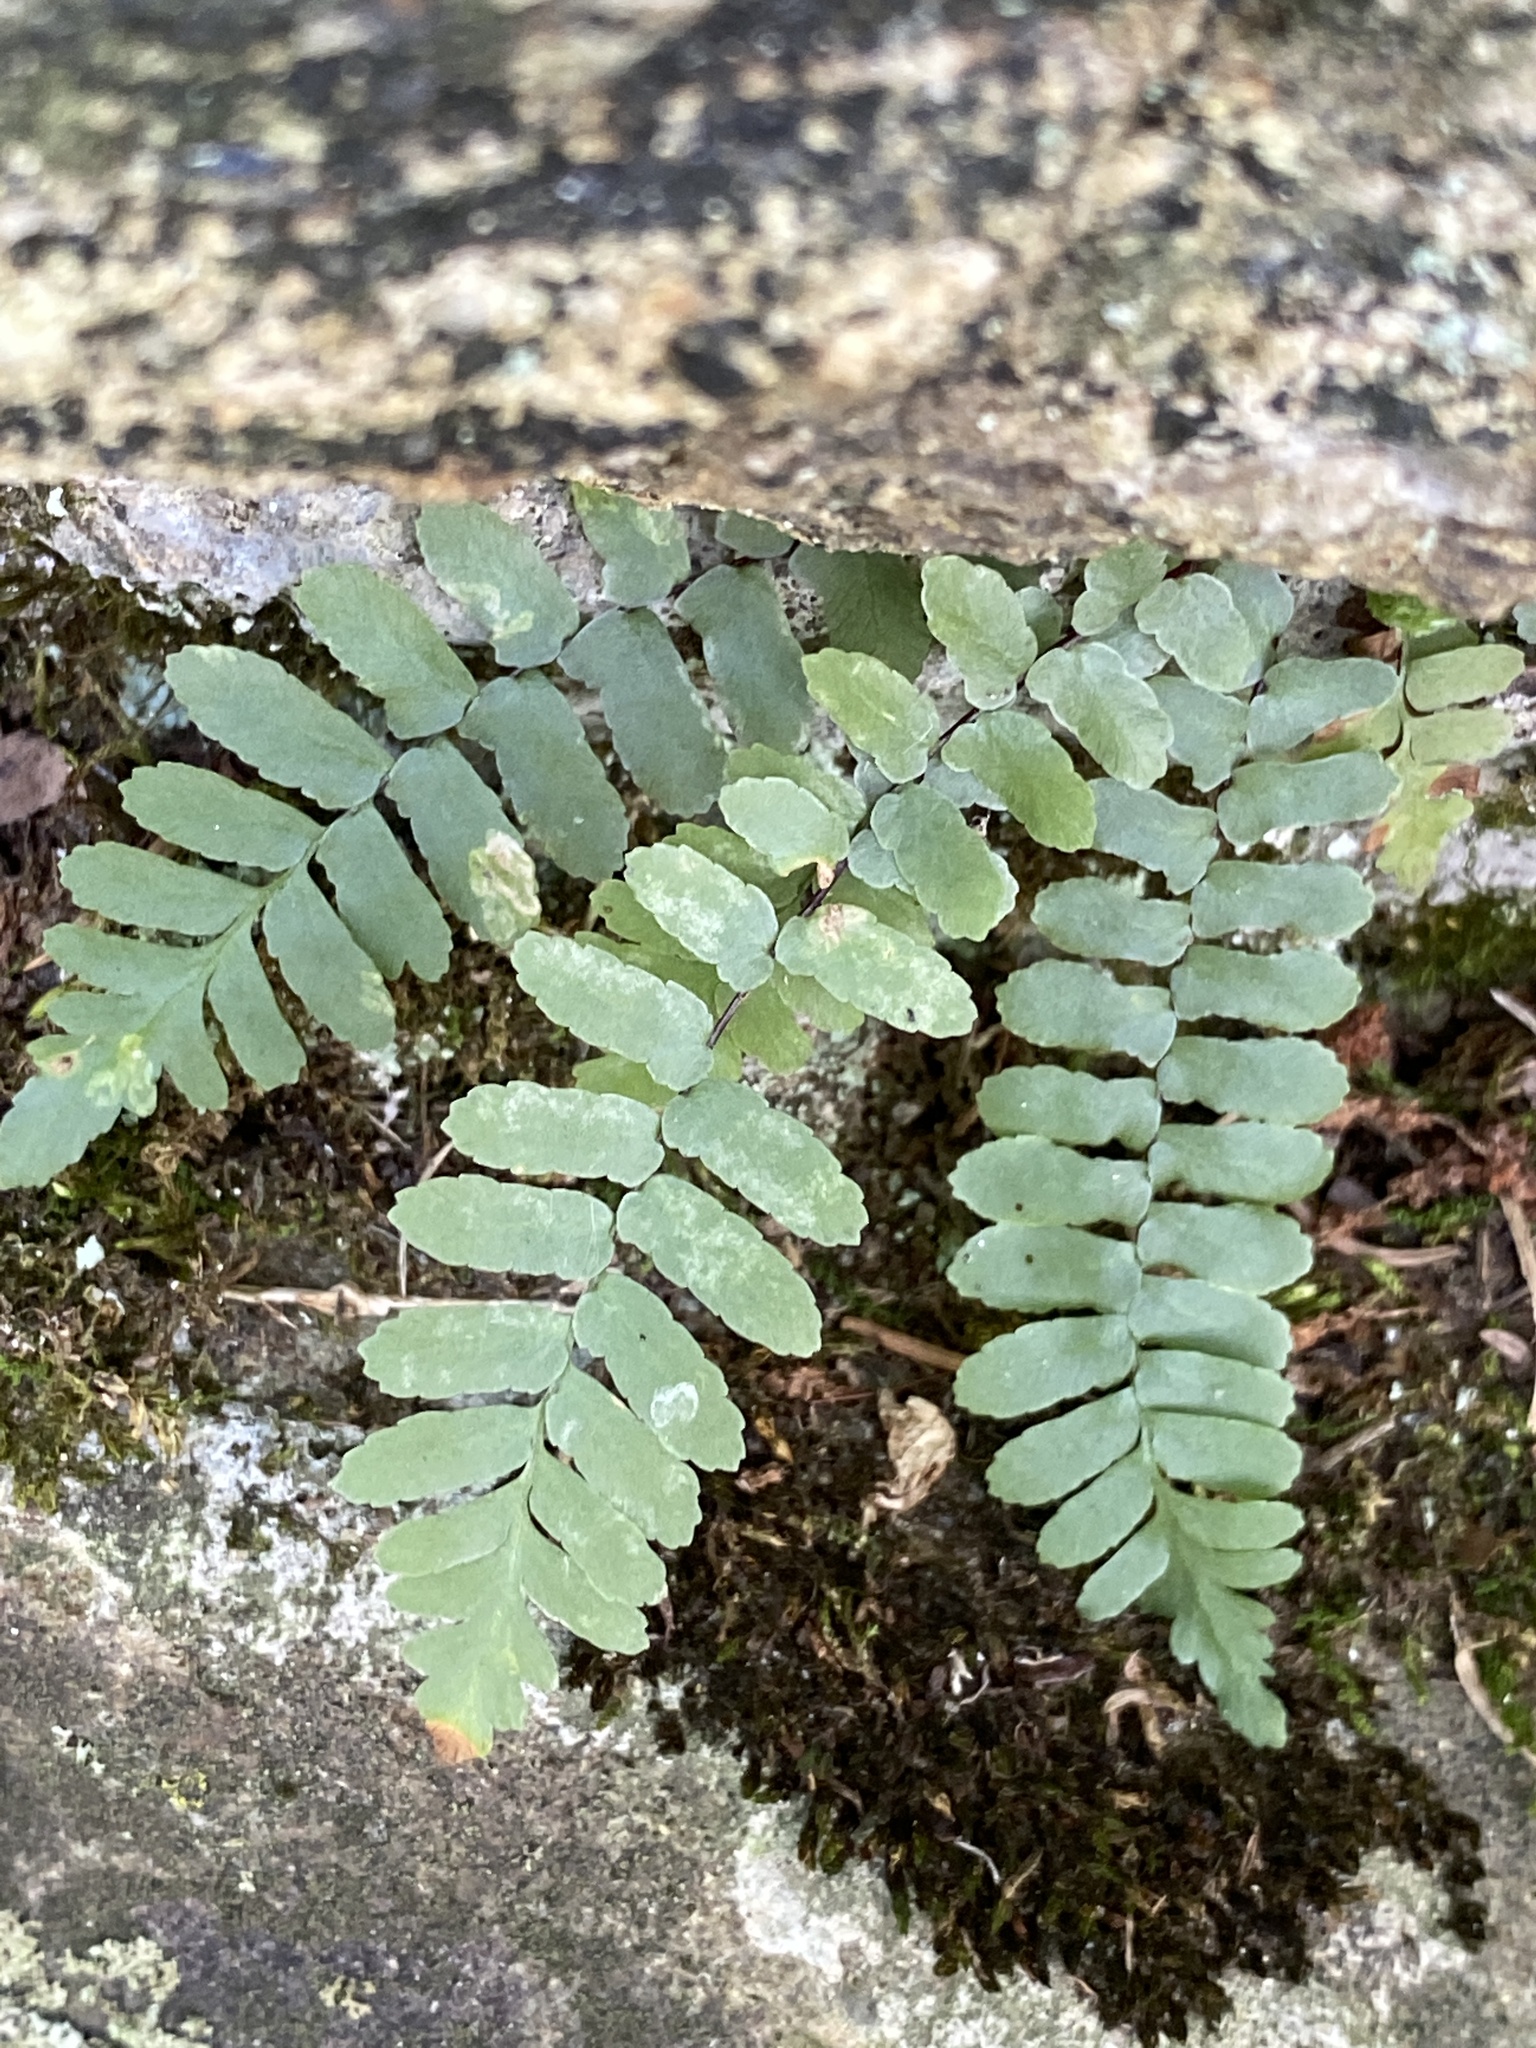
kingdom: Plantae
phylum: Tracheophyta
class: Polypodiopsida
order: Polypodiales
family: Aspleniaceae
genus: Asplenium
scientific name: Asplenium platyneuron
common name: Ebony spleenwort
